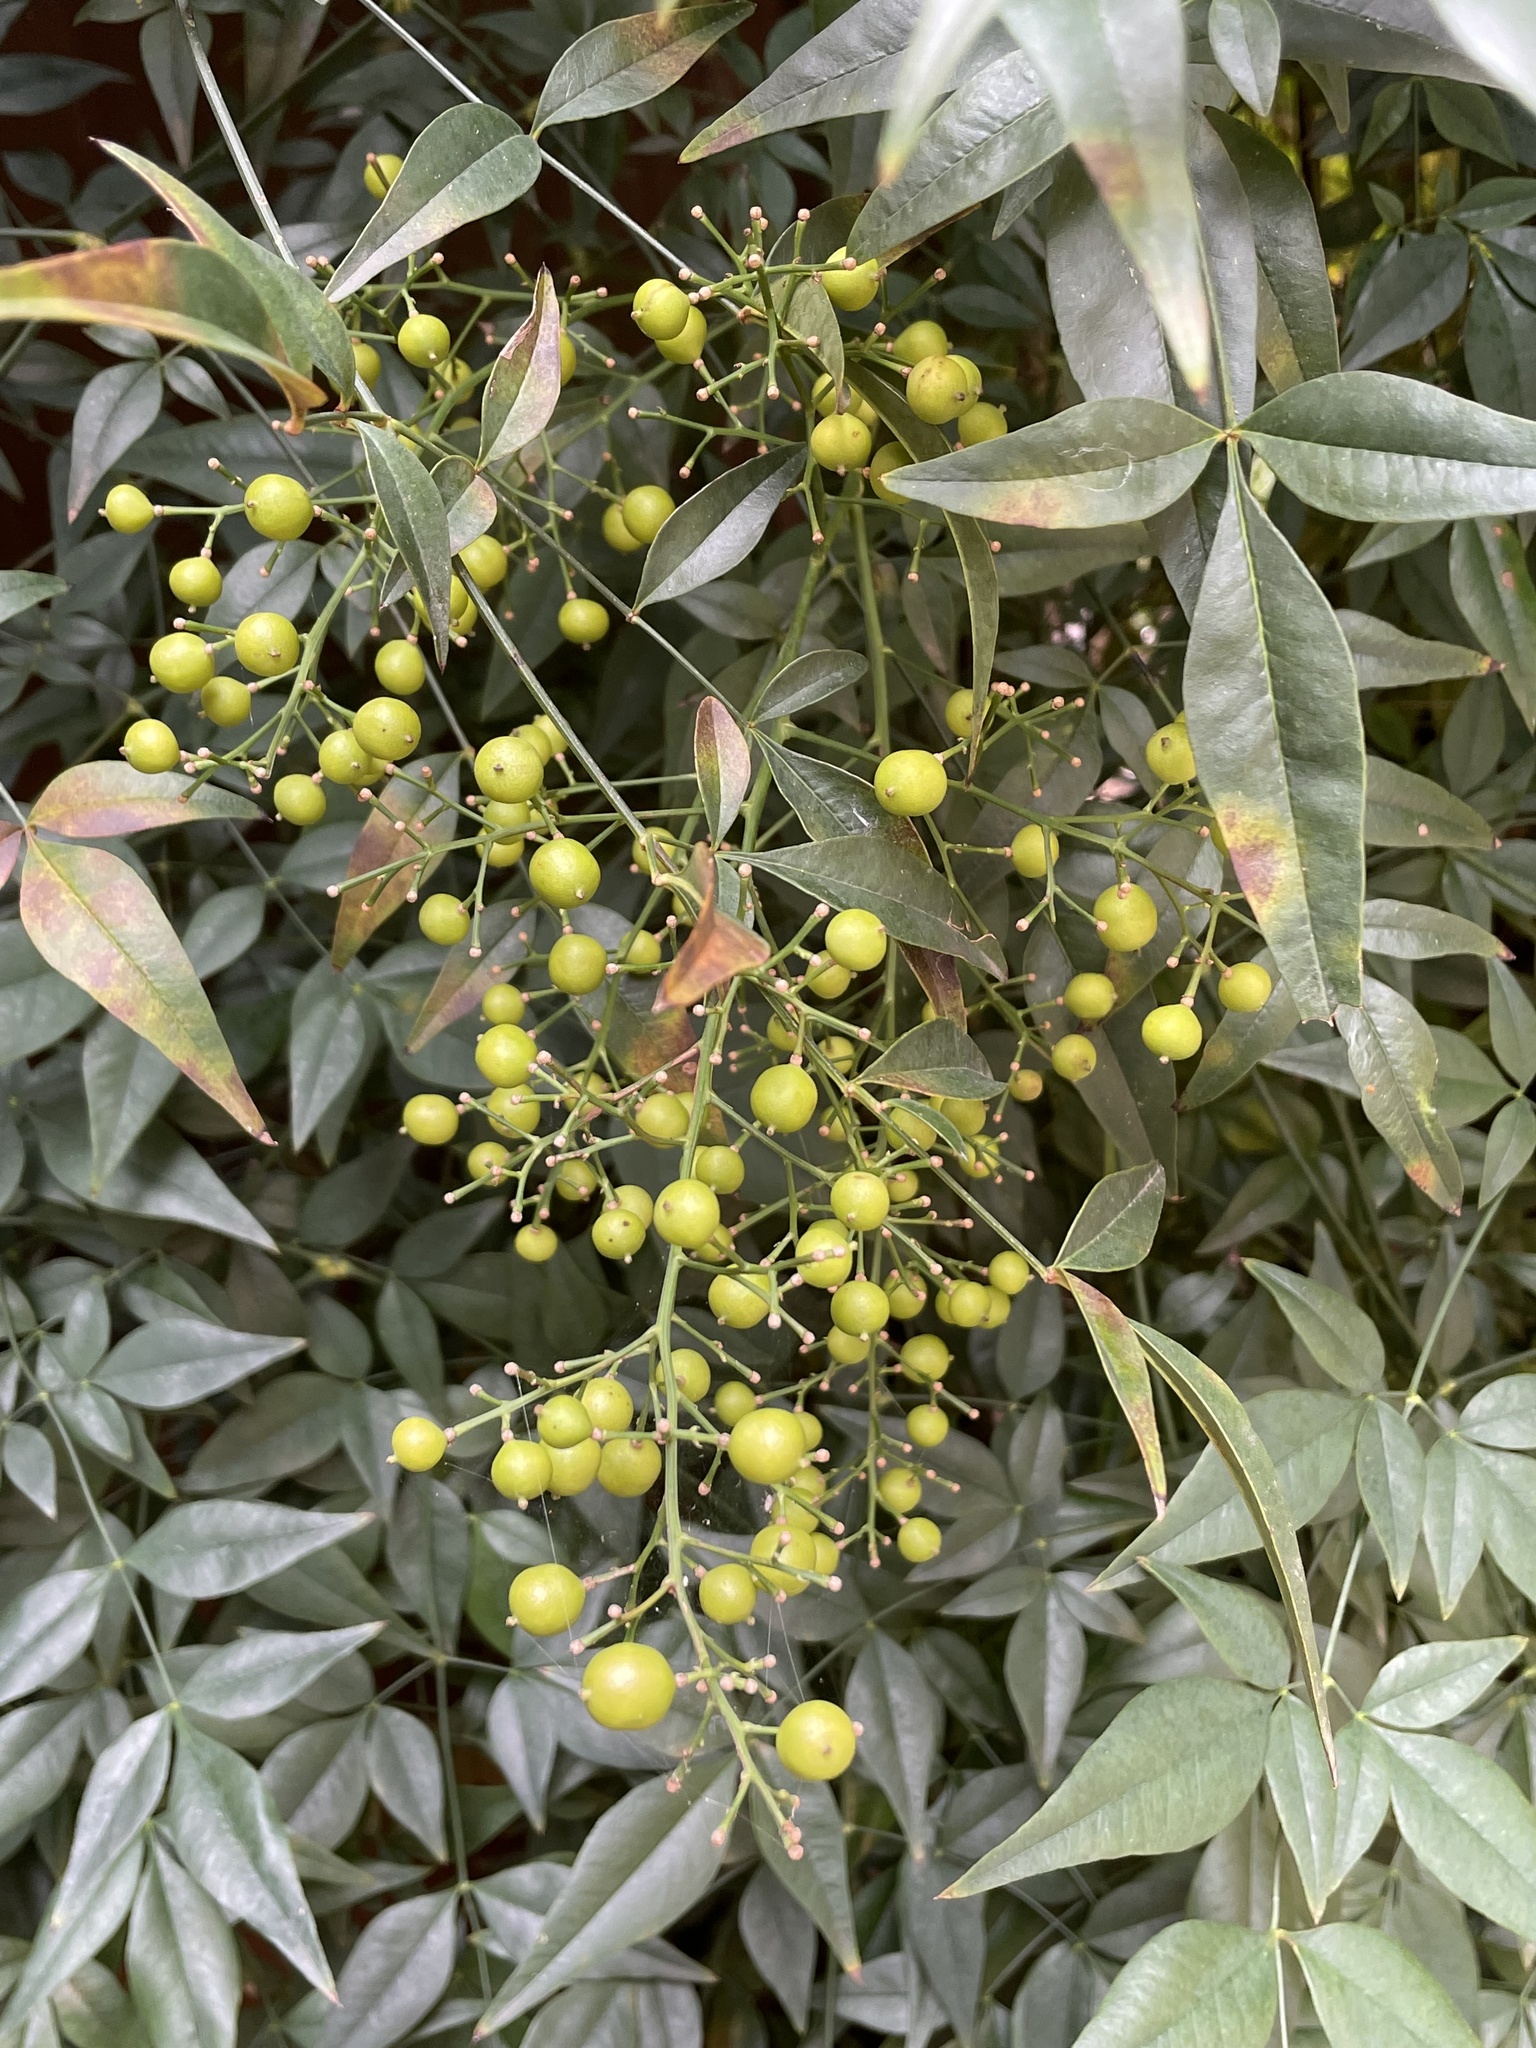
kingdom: Plantae
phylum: Tracheophyta
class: Magnoliopsida
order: Ranunculales
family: Berberidaceae
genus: Nandina
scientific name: Nandina domestica
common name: Sacred bamboo
